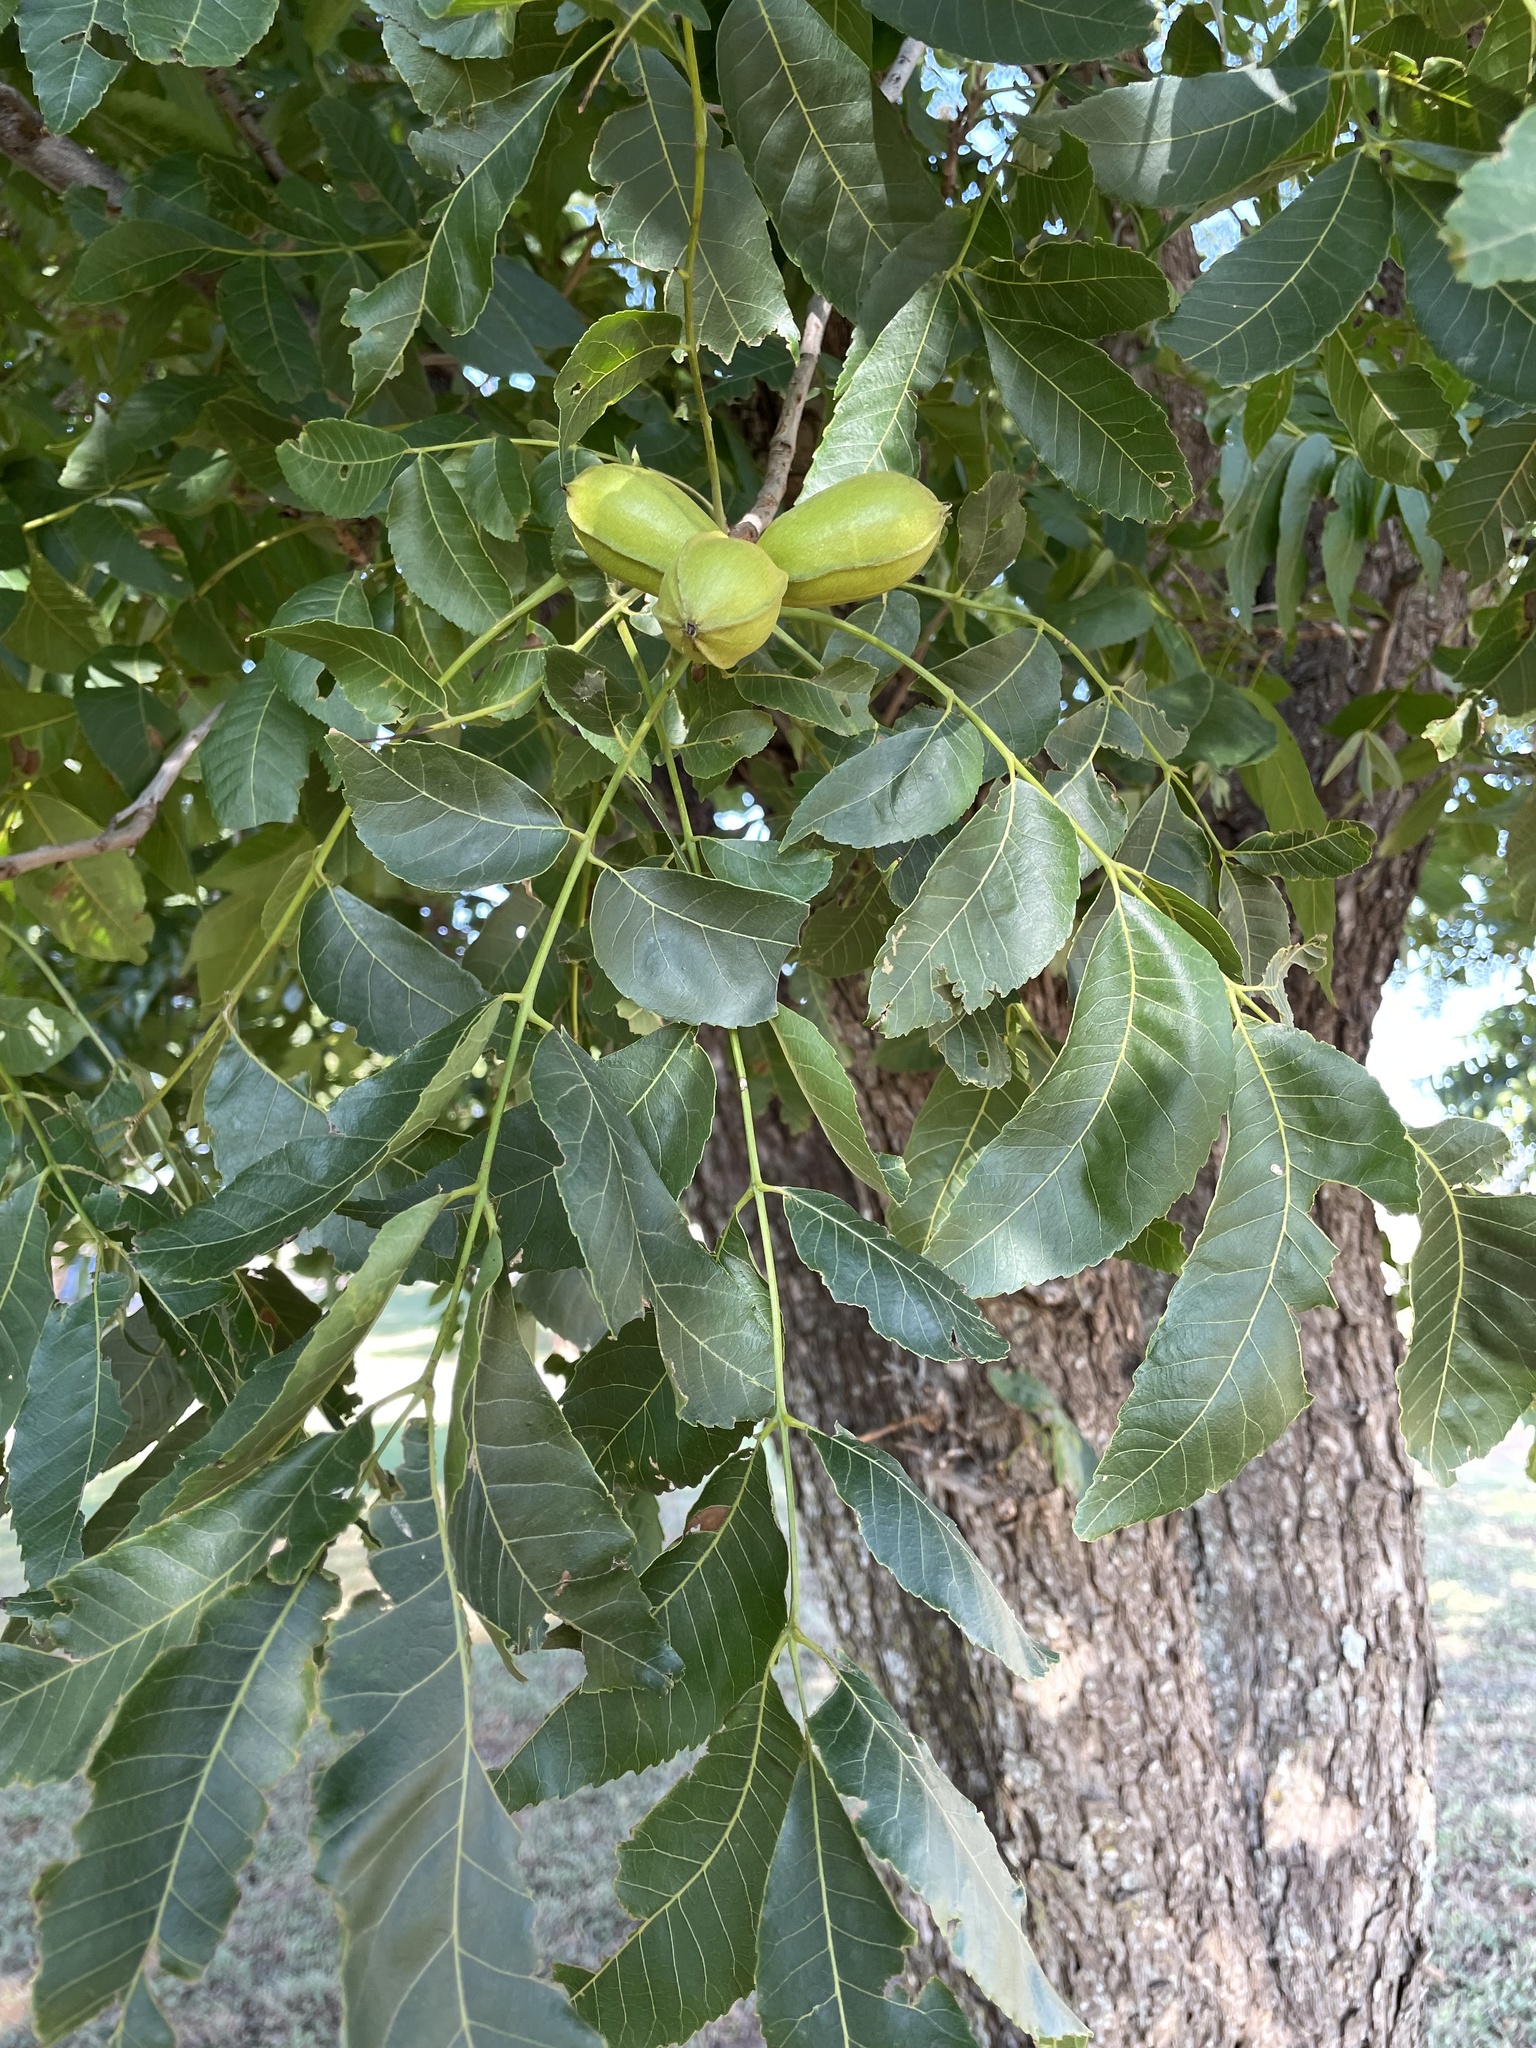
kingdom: Plantae
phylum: Tracheophyta
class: Magnoliopsida
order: Fagales
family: Juglandaceae
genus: Carya
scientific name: Carya illinoinensis
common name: Pecan
